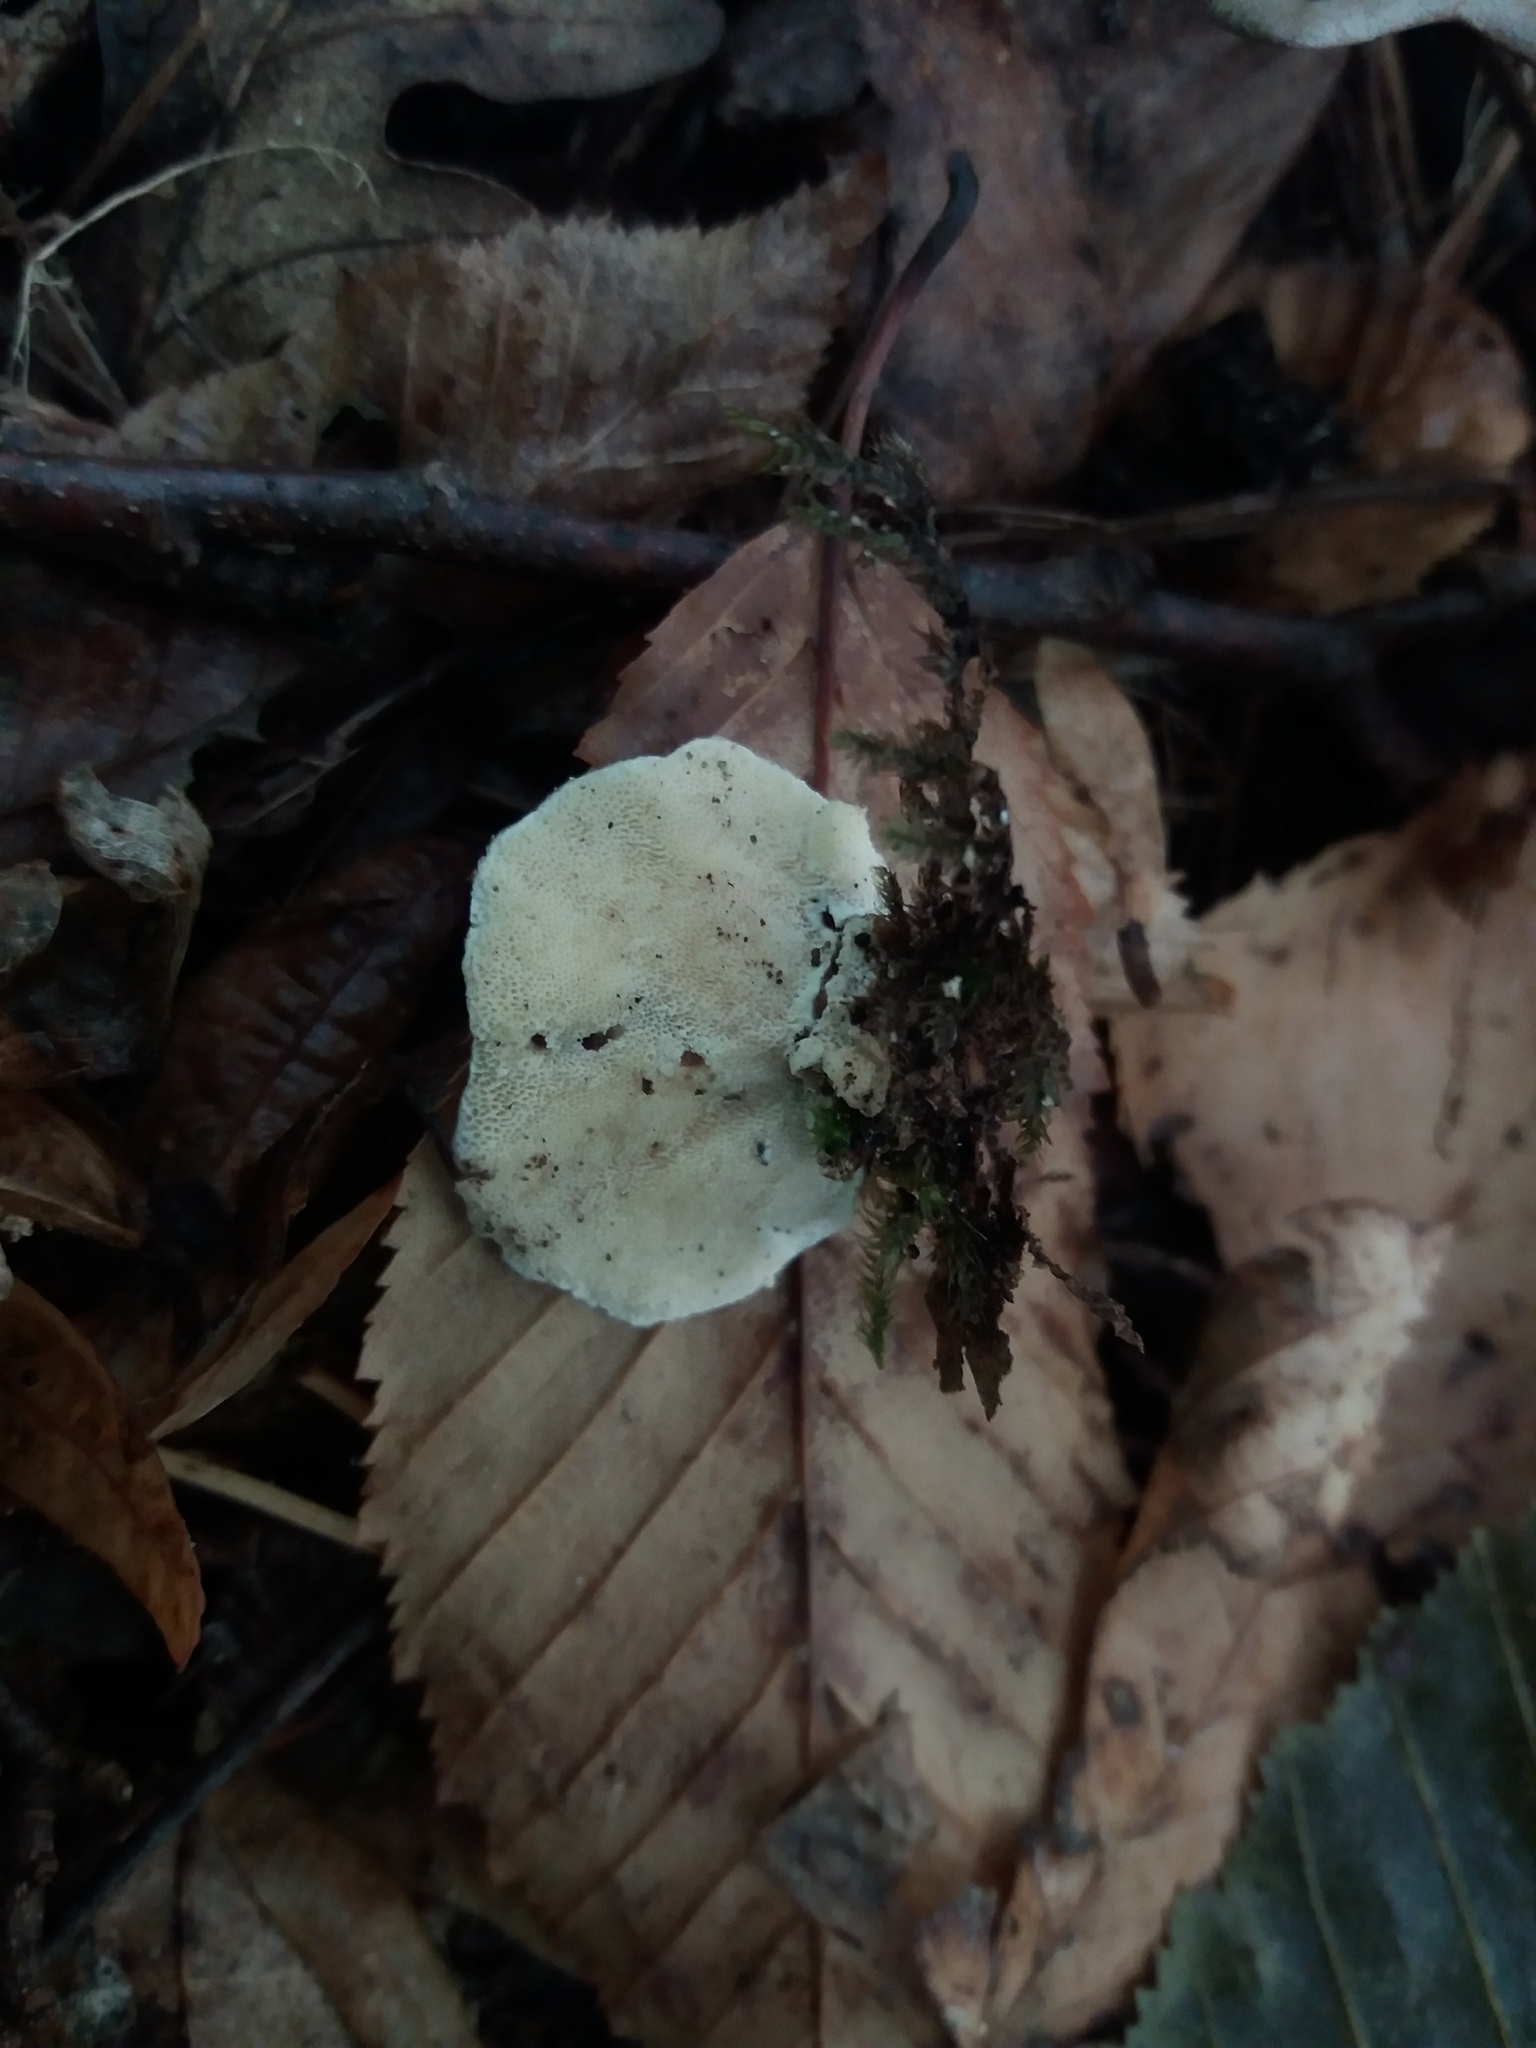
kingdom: Fungi
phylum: Basidiomycota
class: Agaricomycetes
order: Polyporales
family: Polyporaceae
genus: Trametes
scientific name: Trametes ochracea
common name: Ochre bracket
